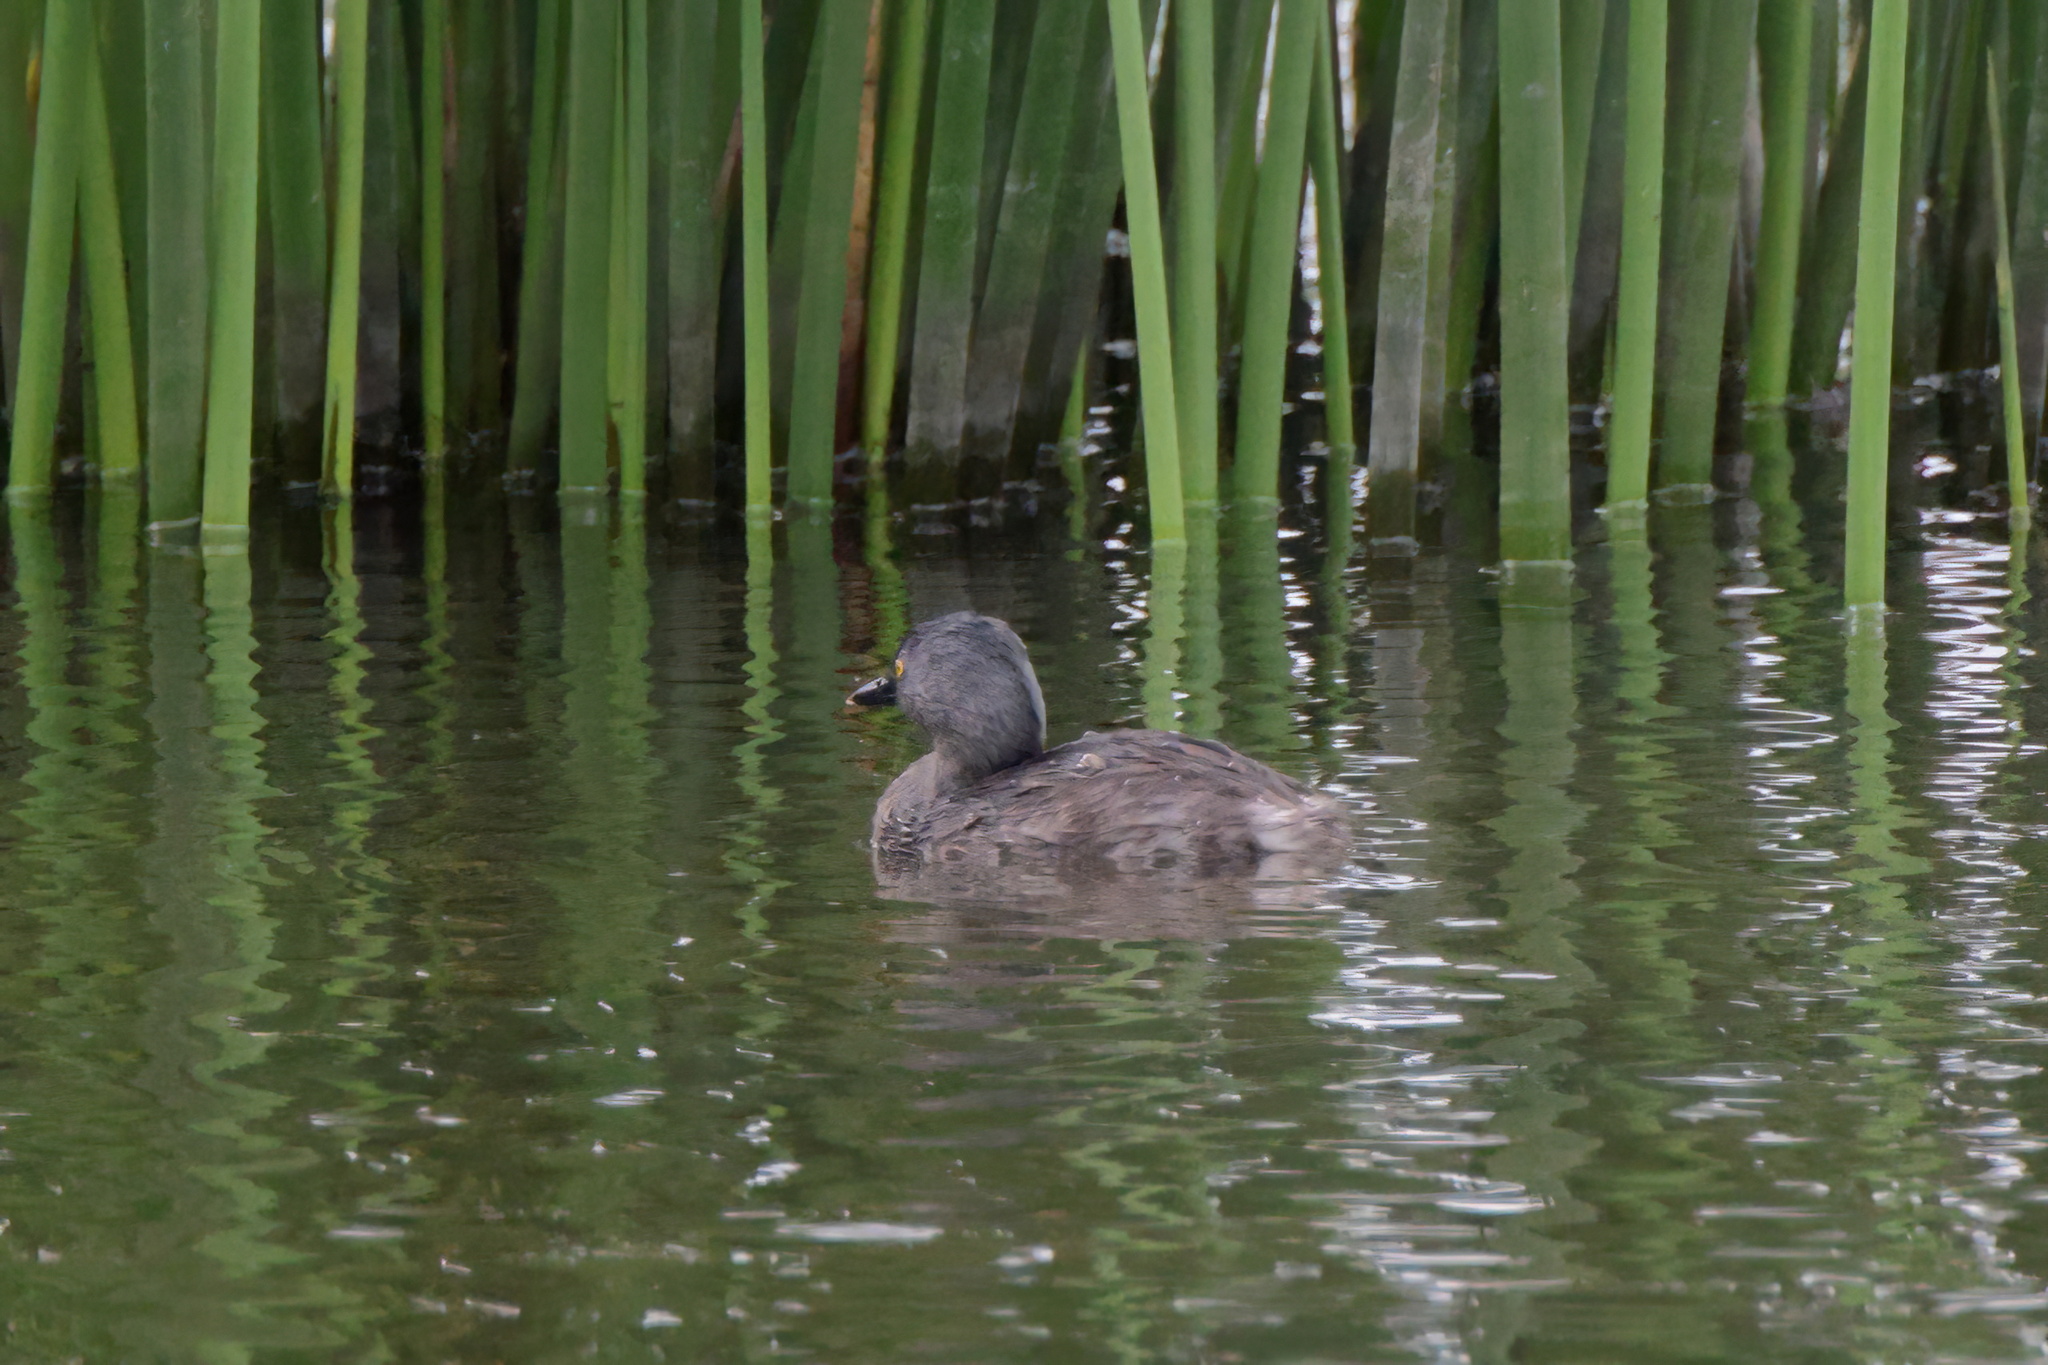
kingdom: Animalia
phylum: Chordata
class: Aves
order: Podicipediformes
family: Podicipedidae
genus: Tachybaptus
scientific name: Tachybaptus dominicus
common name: Least grebe
